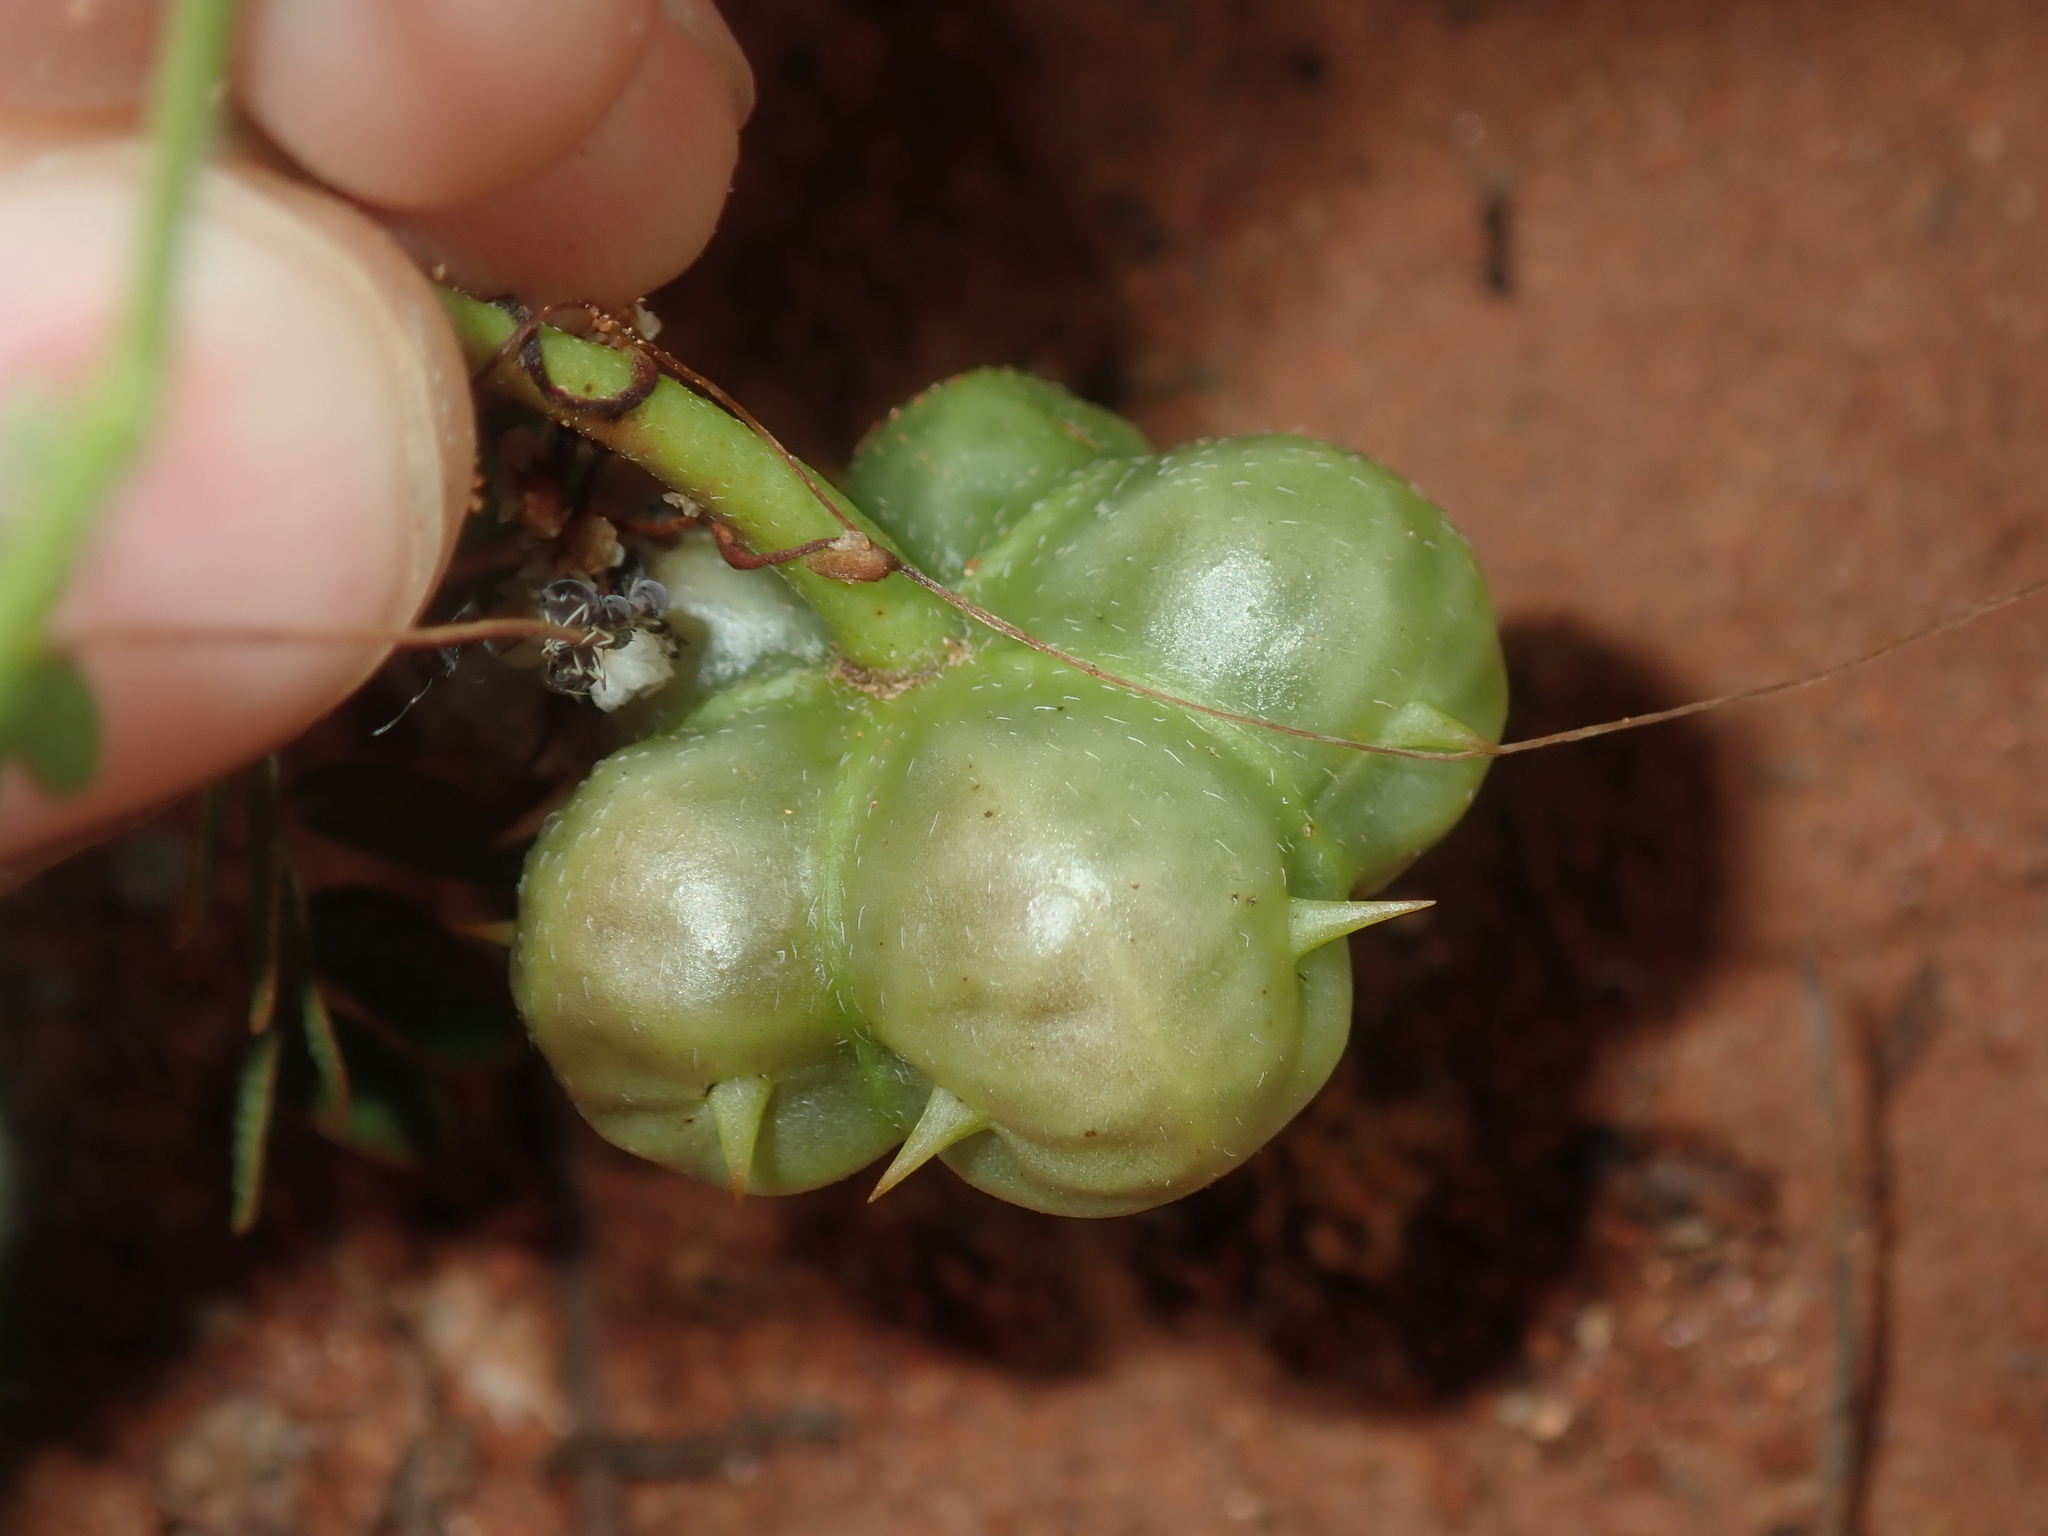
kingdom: Plantae
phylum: Tracheophyta
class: Magnoliopsida
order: Zygophyllales
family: Zygophyllaceae
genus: Tribulus
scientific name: Tribulus forrestii
